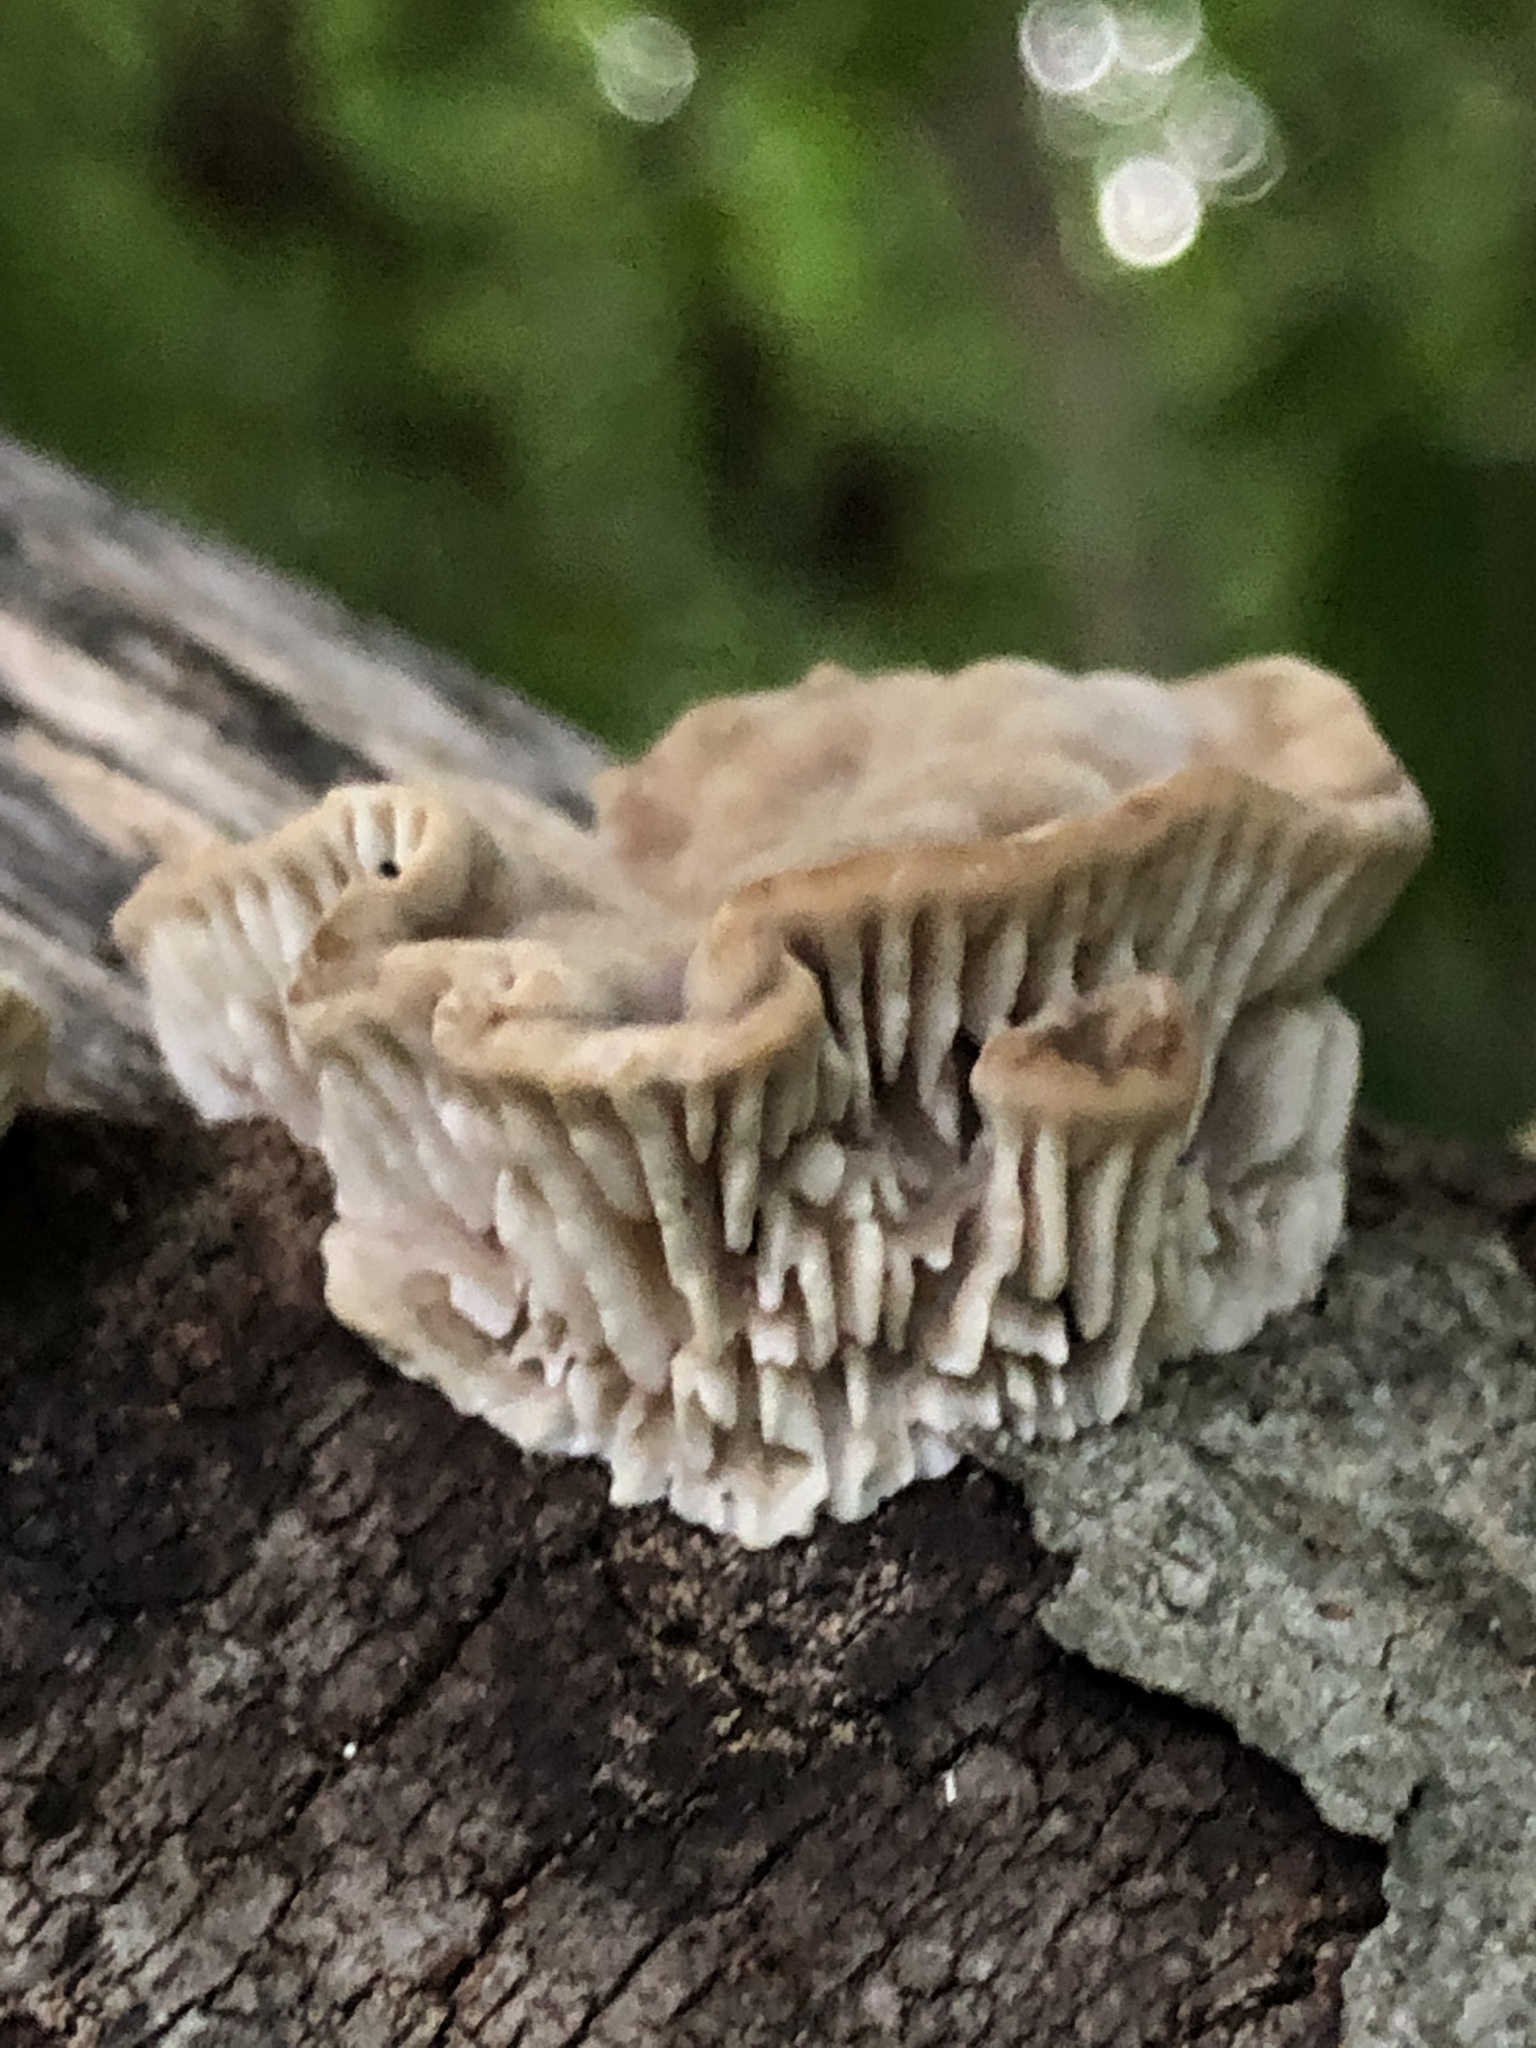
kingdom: Fungi
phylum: Basidiomycota
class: Agaricomycetes
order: Polyporales
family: Polyporaceae
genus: Lenzites
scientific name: Lenzites betulinus
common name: Birch mazegill
